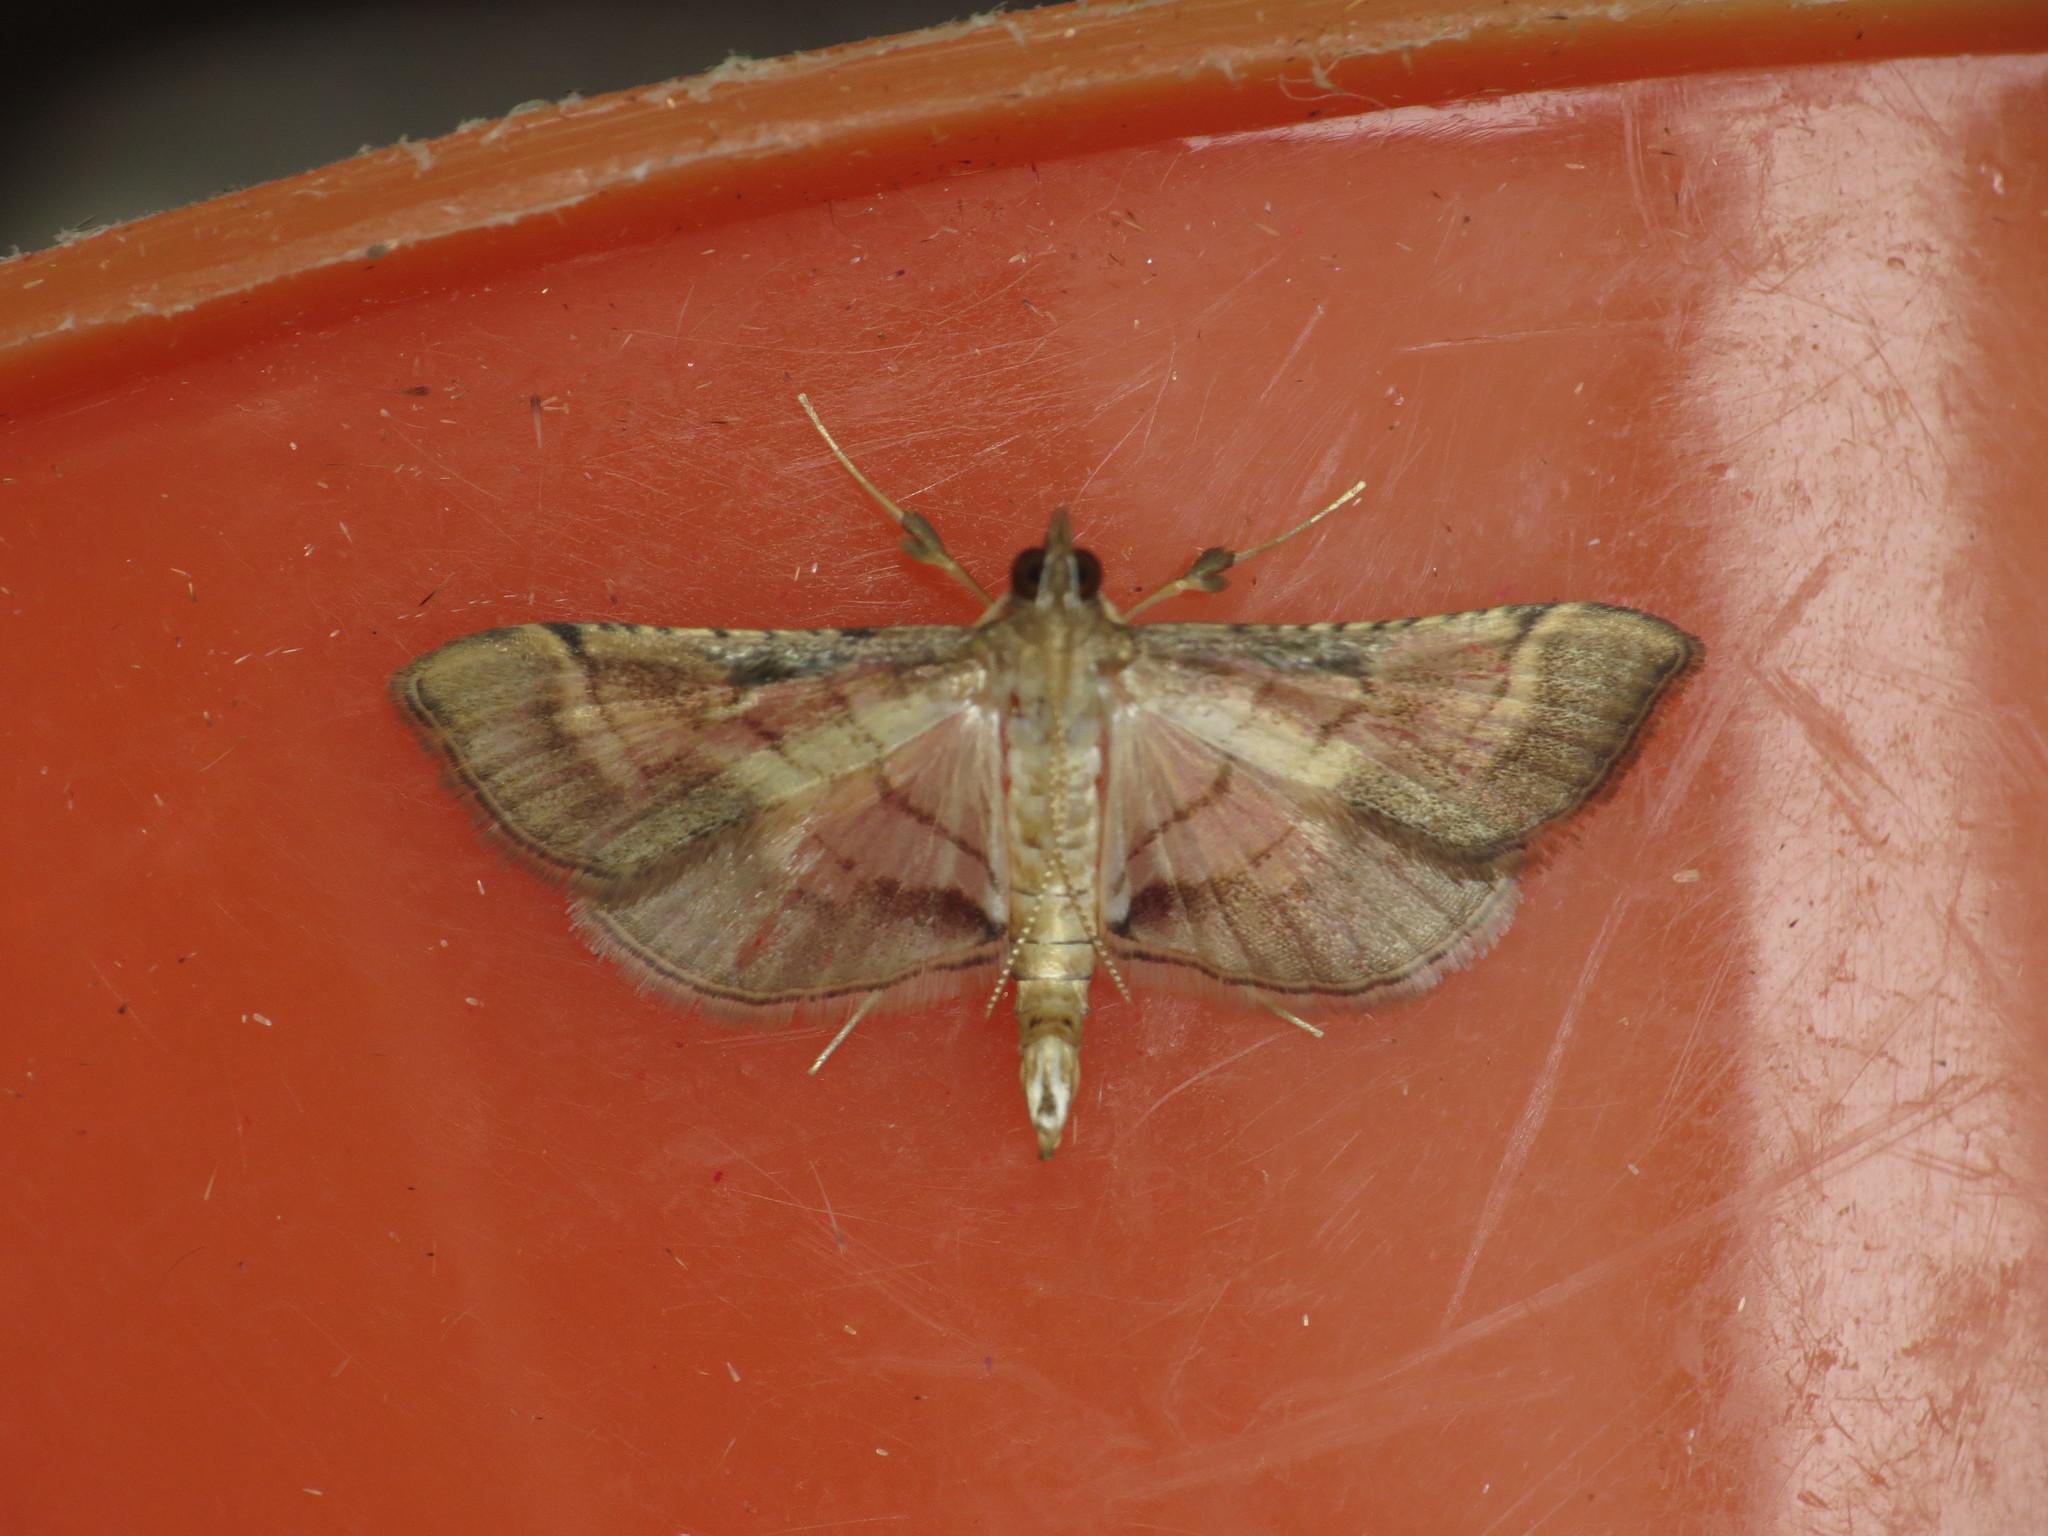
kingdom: Animalia
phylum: Arthropoda
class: Insecta
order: Lepidoptera
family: Crambidae
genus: Cnaphalocrocis
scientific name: Cnaphalocrocis poeyalis
